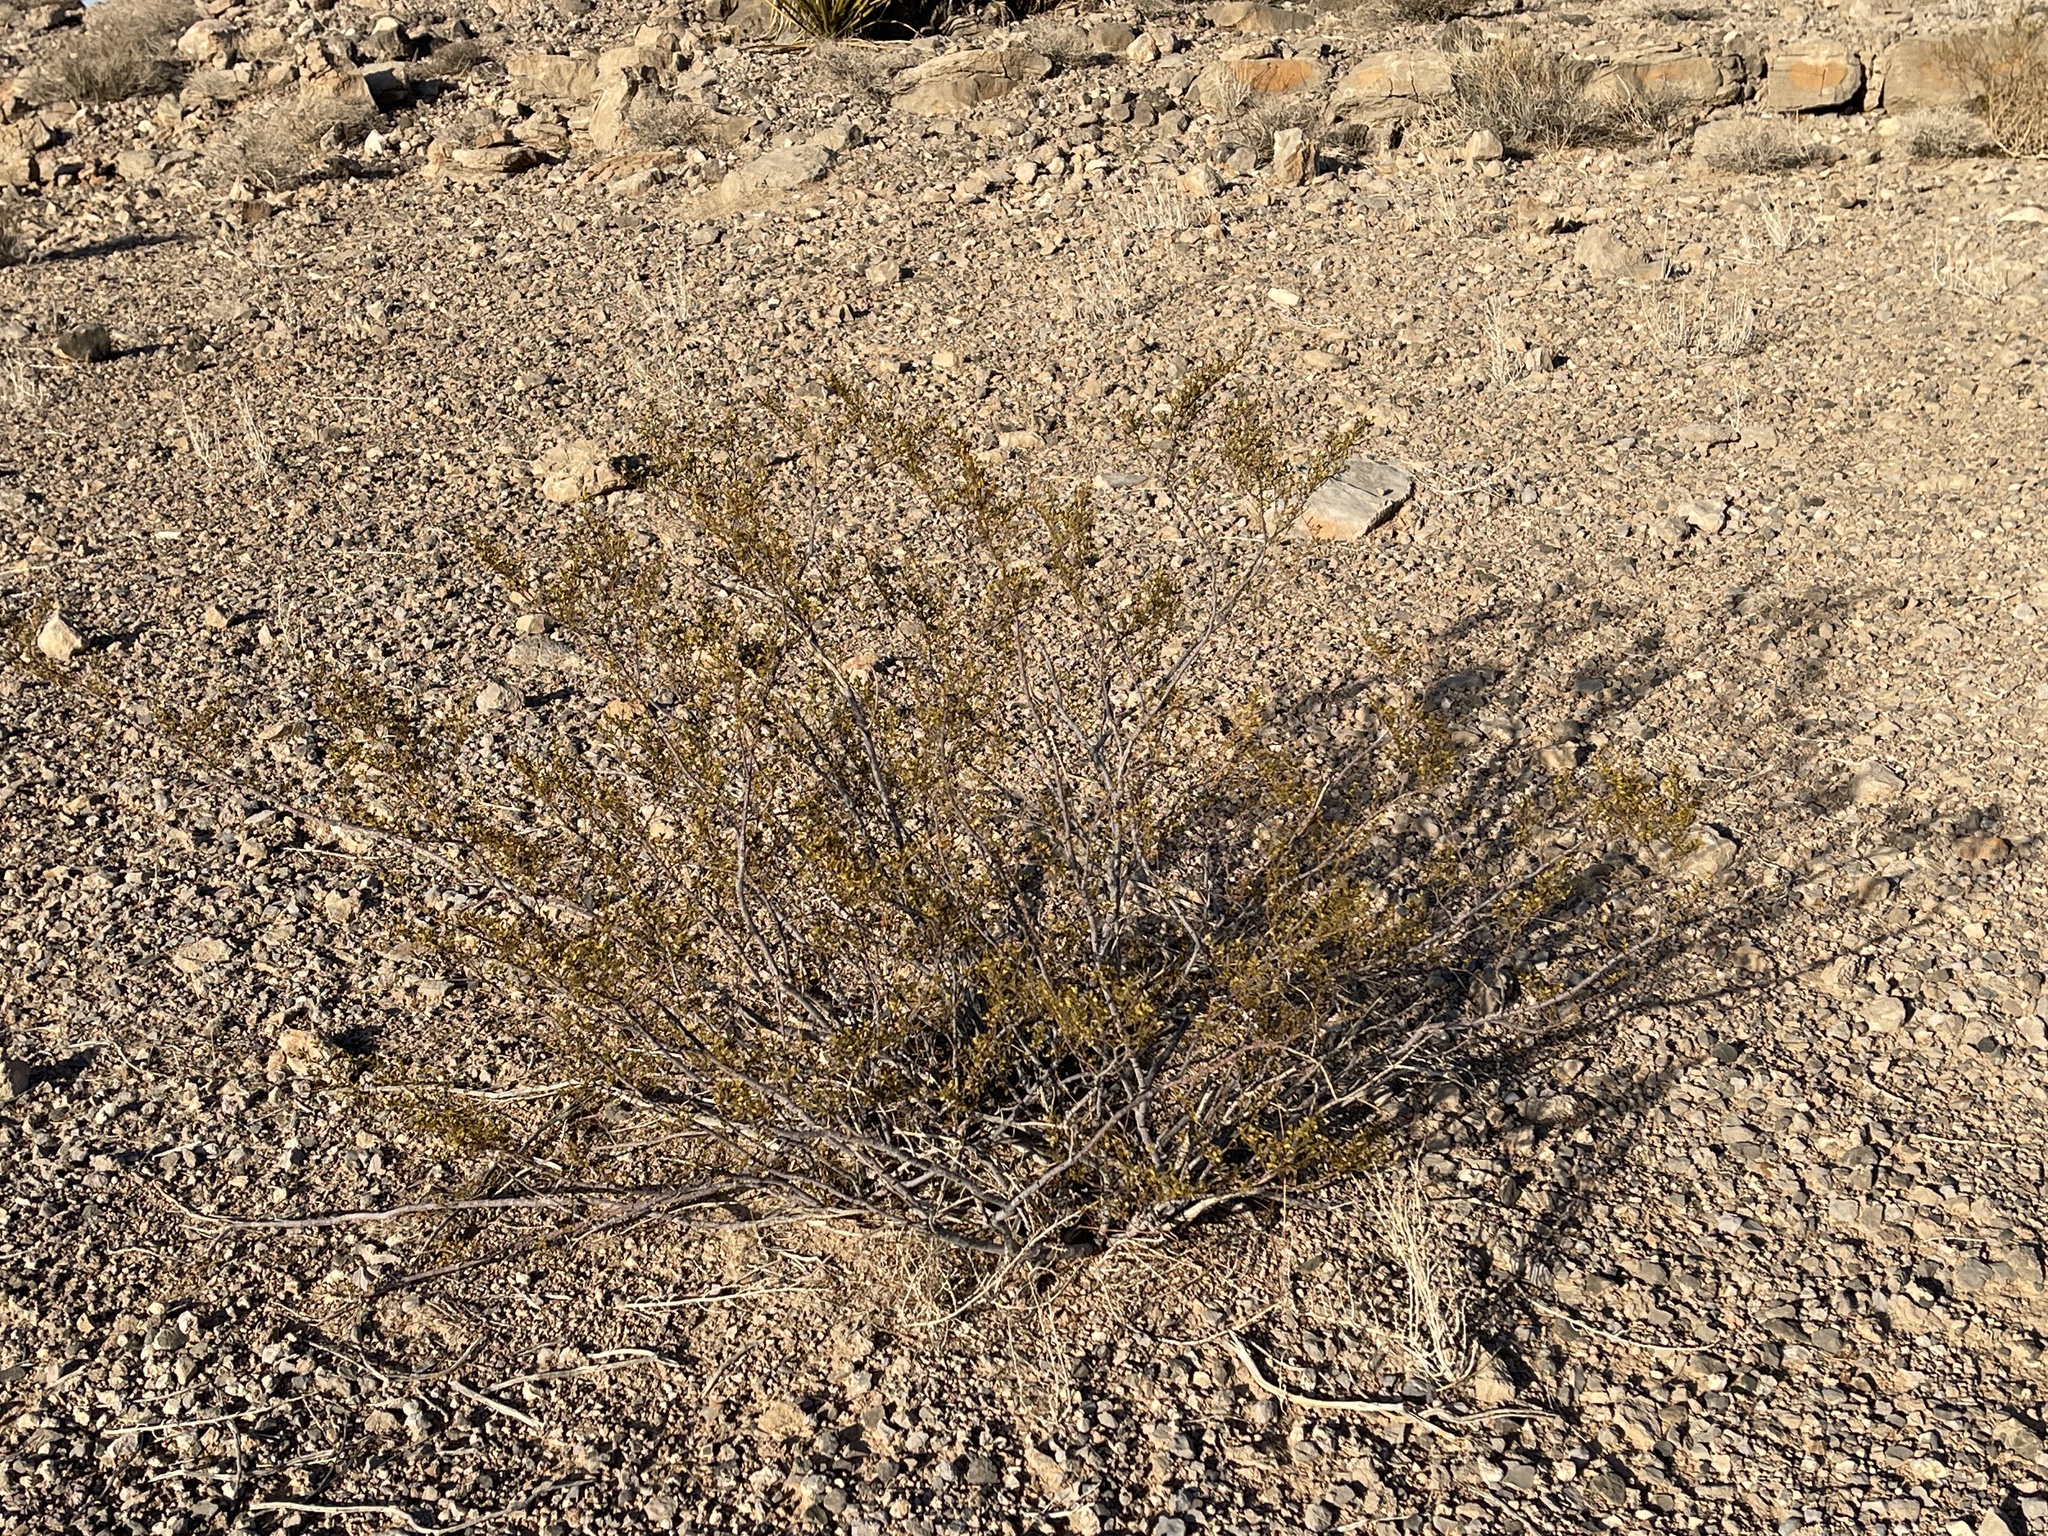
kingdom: Plantae
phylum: Tracheophyta
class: Magnoliopsida
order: Zygophyllales
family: Zygophyllaceae
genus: Larrea
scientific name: Larrea tridentata
